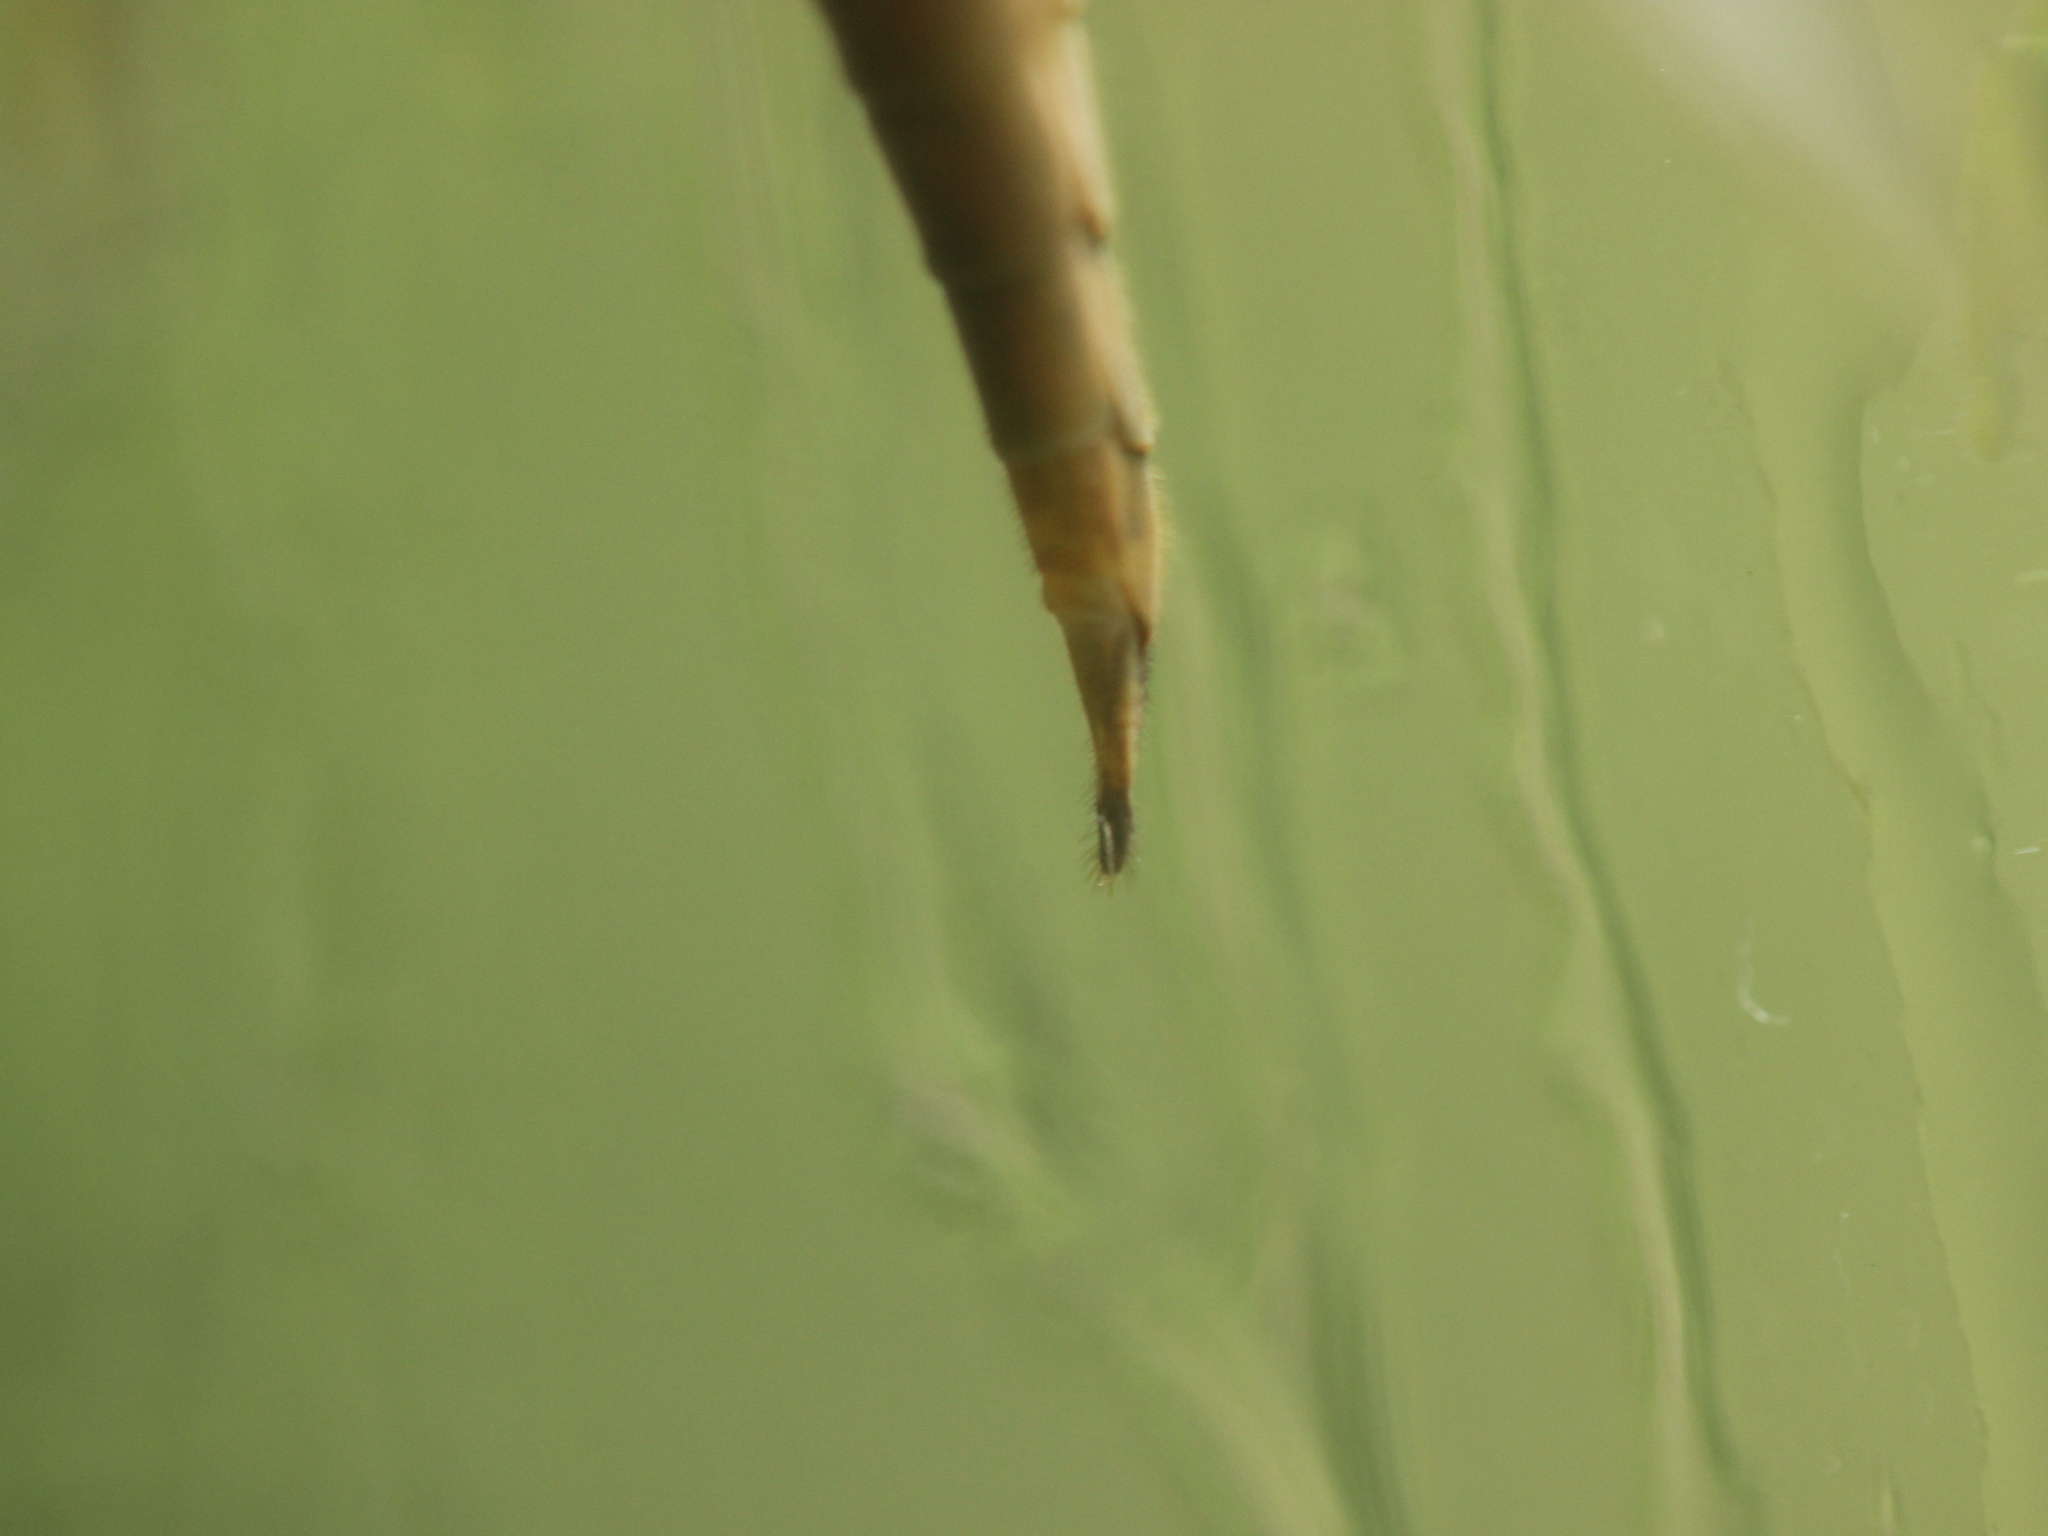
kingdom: Animalia
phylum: Arthropoda
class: Insecta
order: Diptera
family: Tipulidae
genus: Leptotarsus
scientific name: Leptotarsus albistigma
